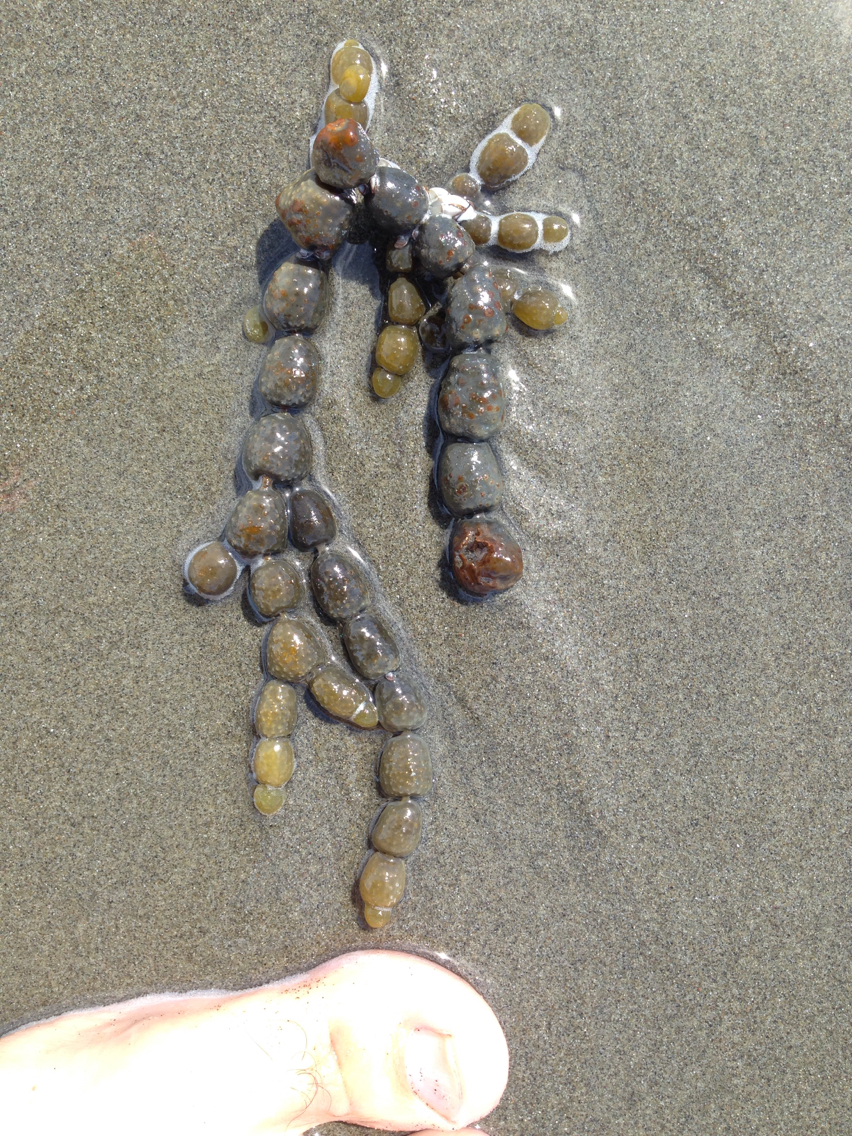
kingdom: Chromista
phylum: Ochrophyta
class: Phaeophyceae
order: Fucales
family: Hormosiraceae
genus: Hormosira
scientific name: Hormosira banksii
